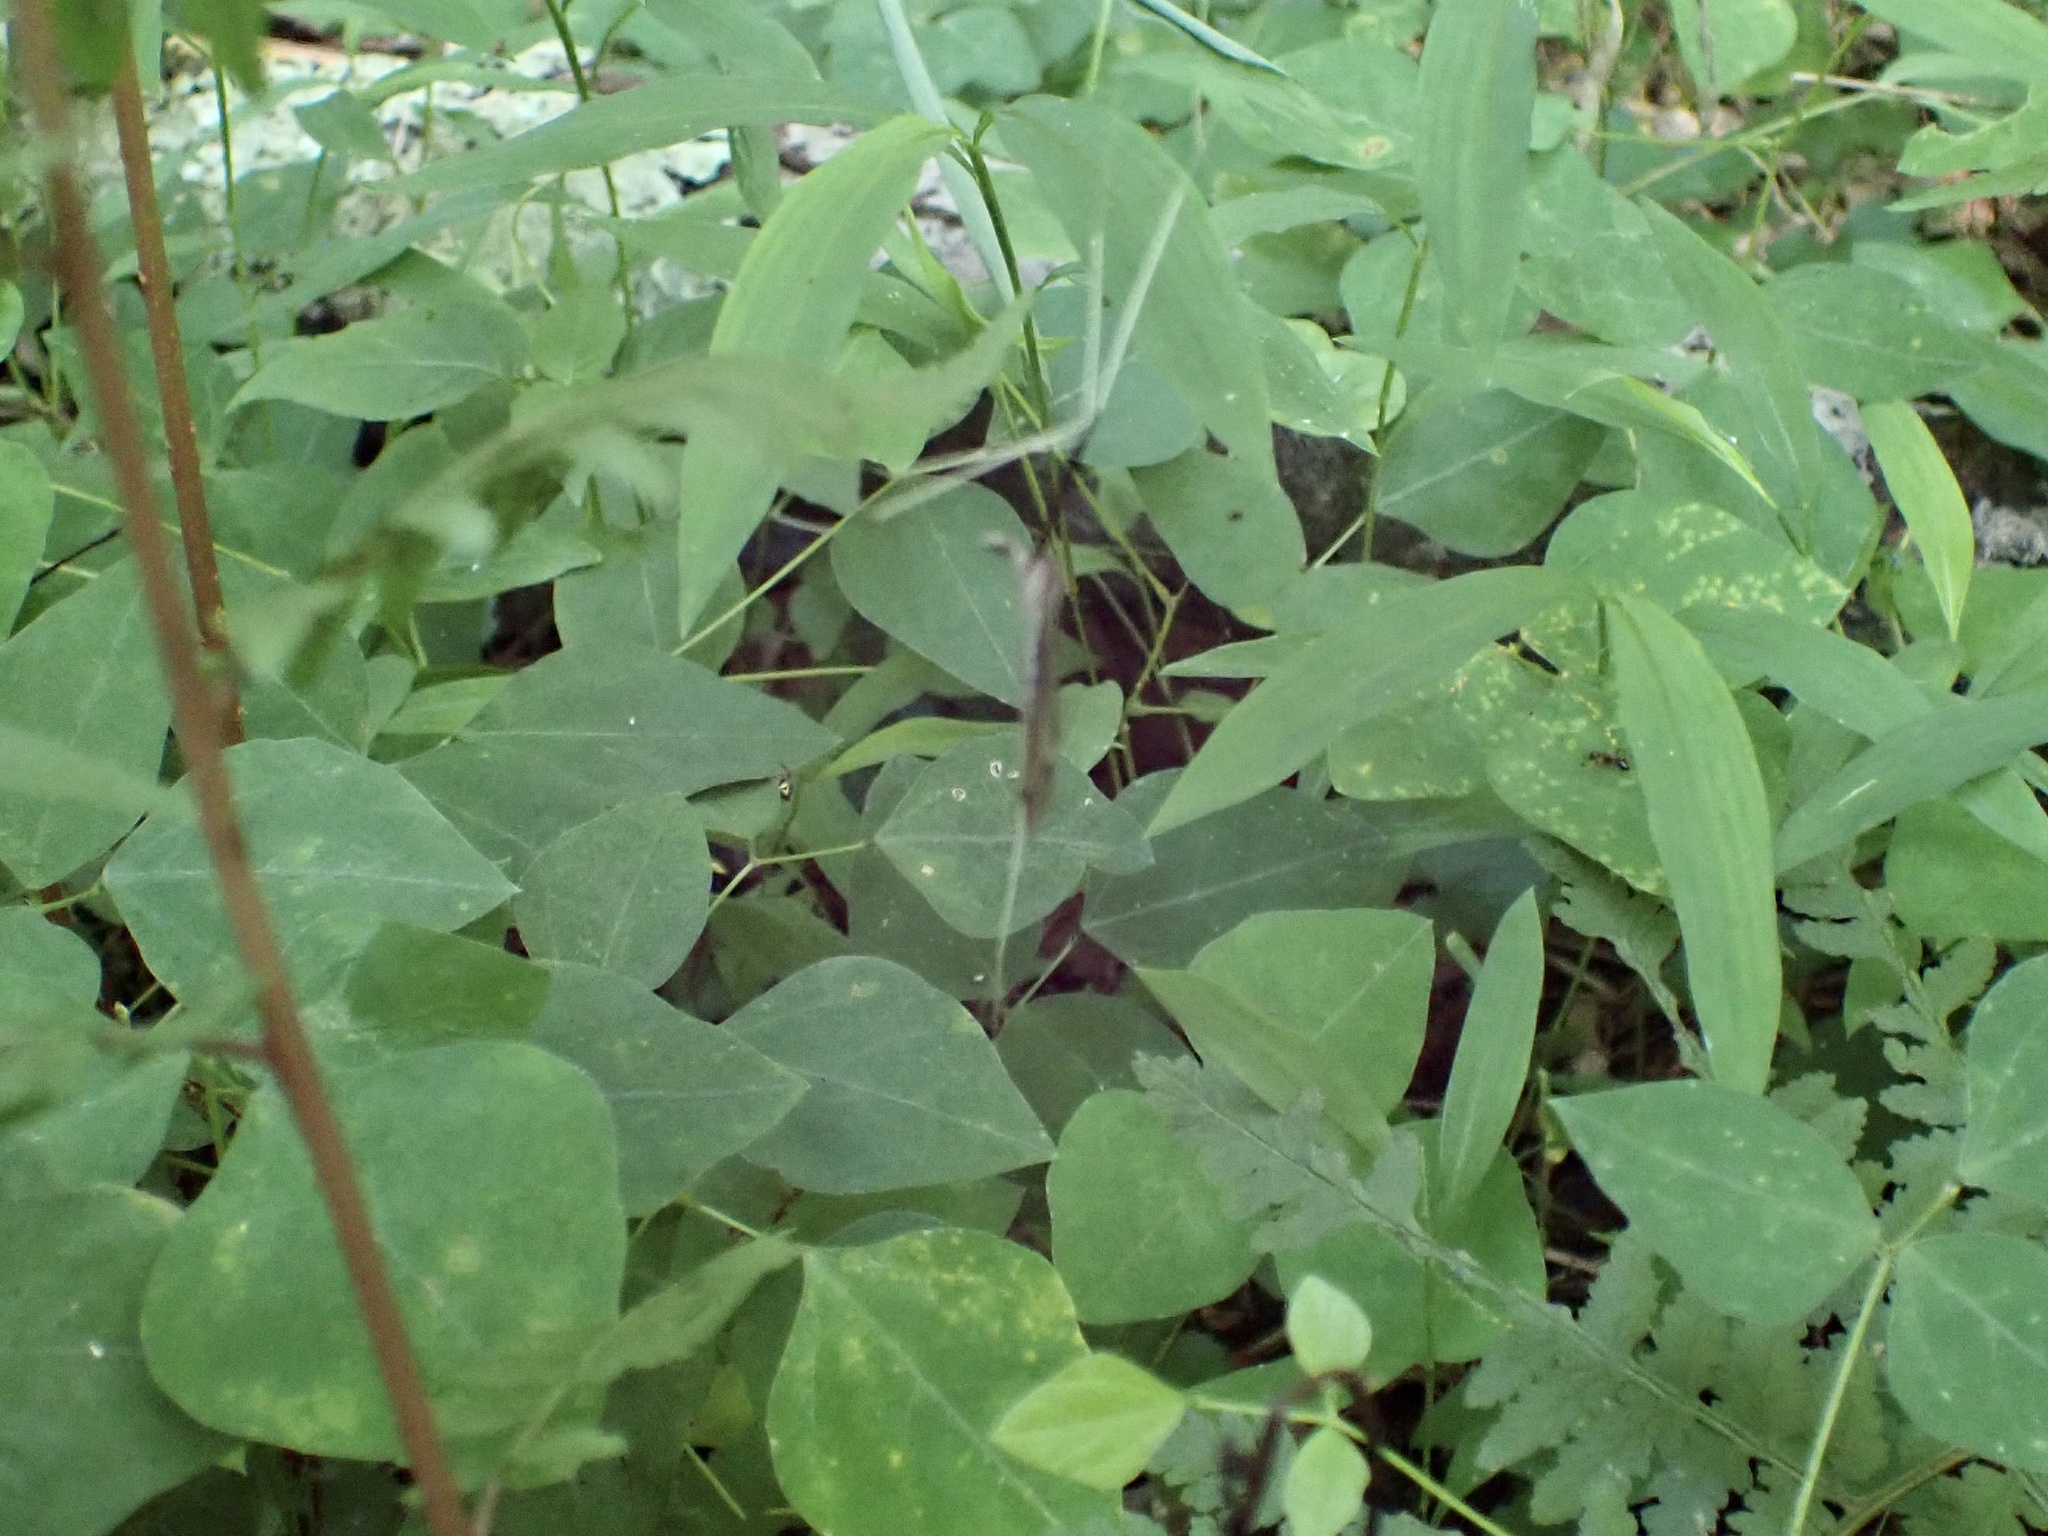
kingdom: Plantae
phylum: Tracheophyta
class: Magnoliopsida
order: Fabales
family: Fabaceae
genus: Amphicarpaea
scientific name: Amphicarpaea bracteata
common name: American hog peanut
